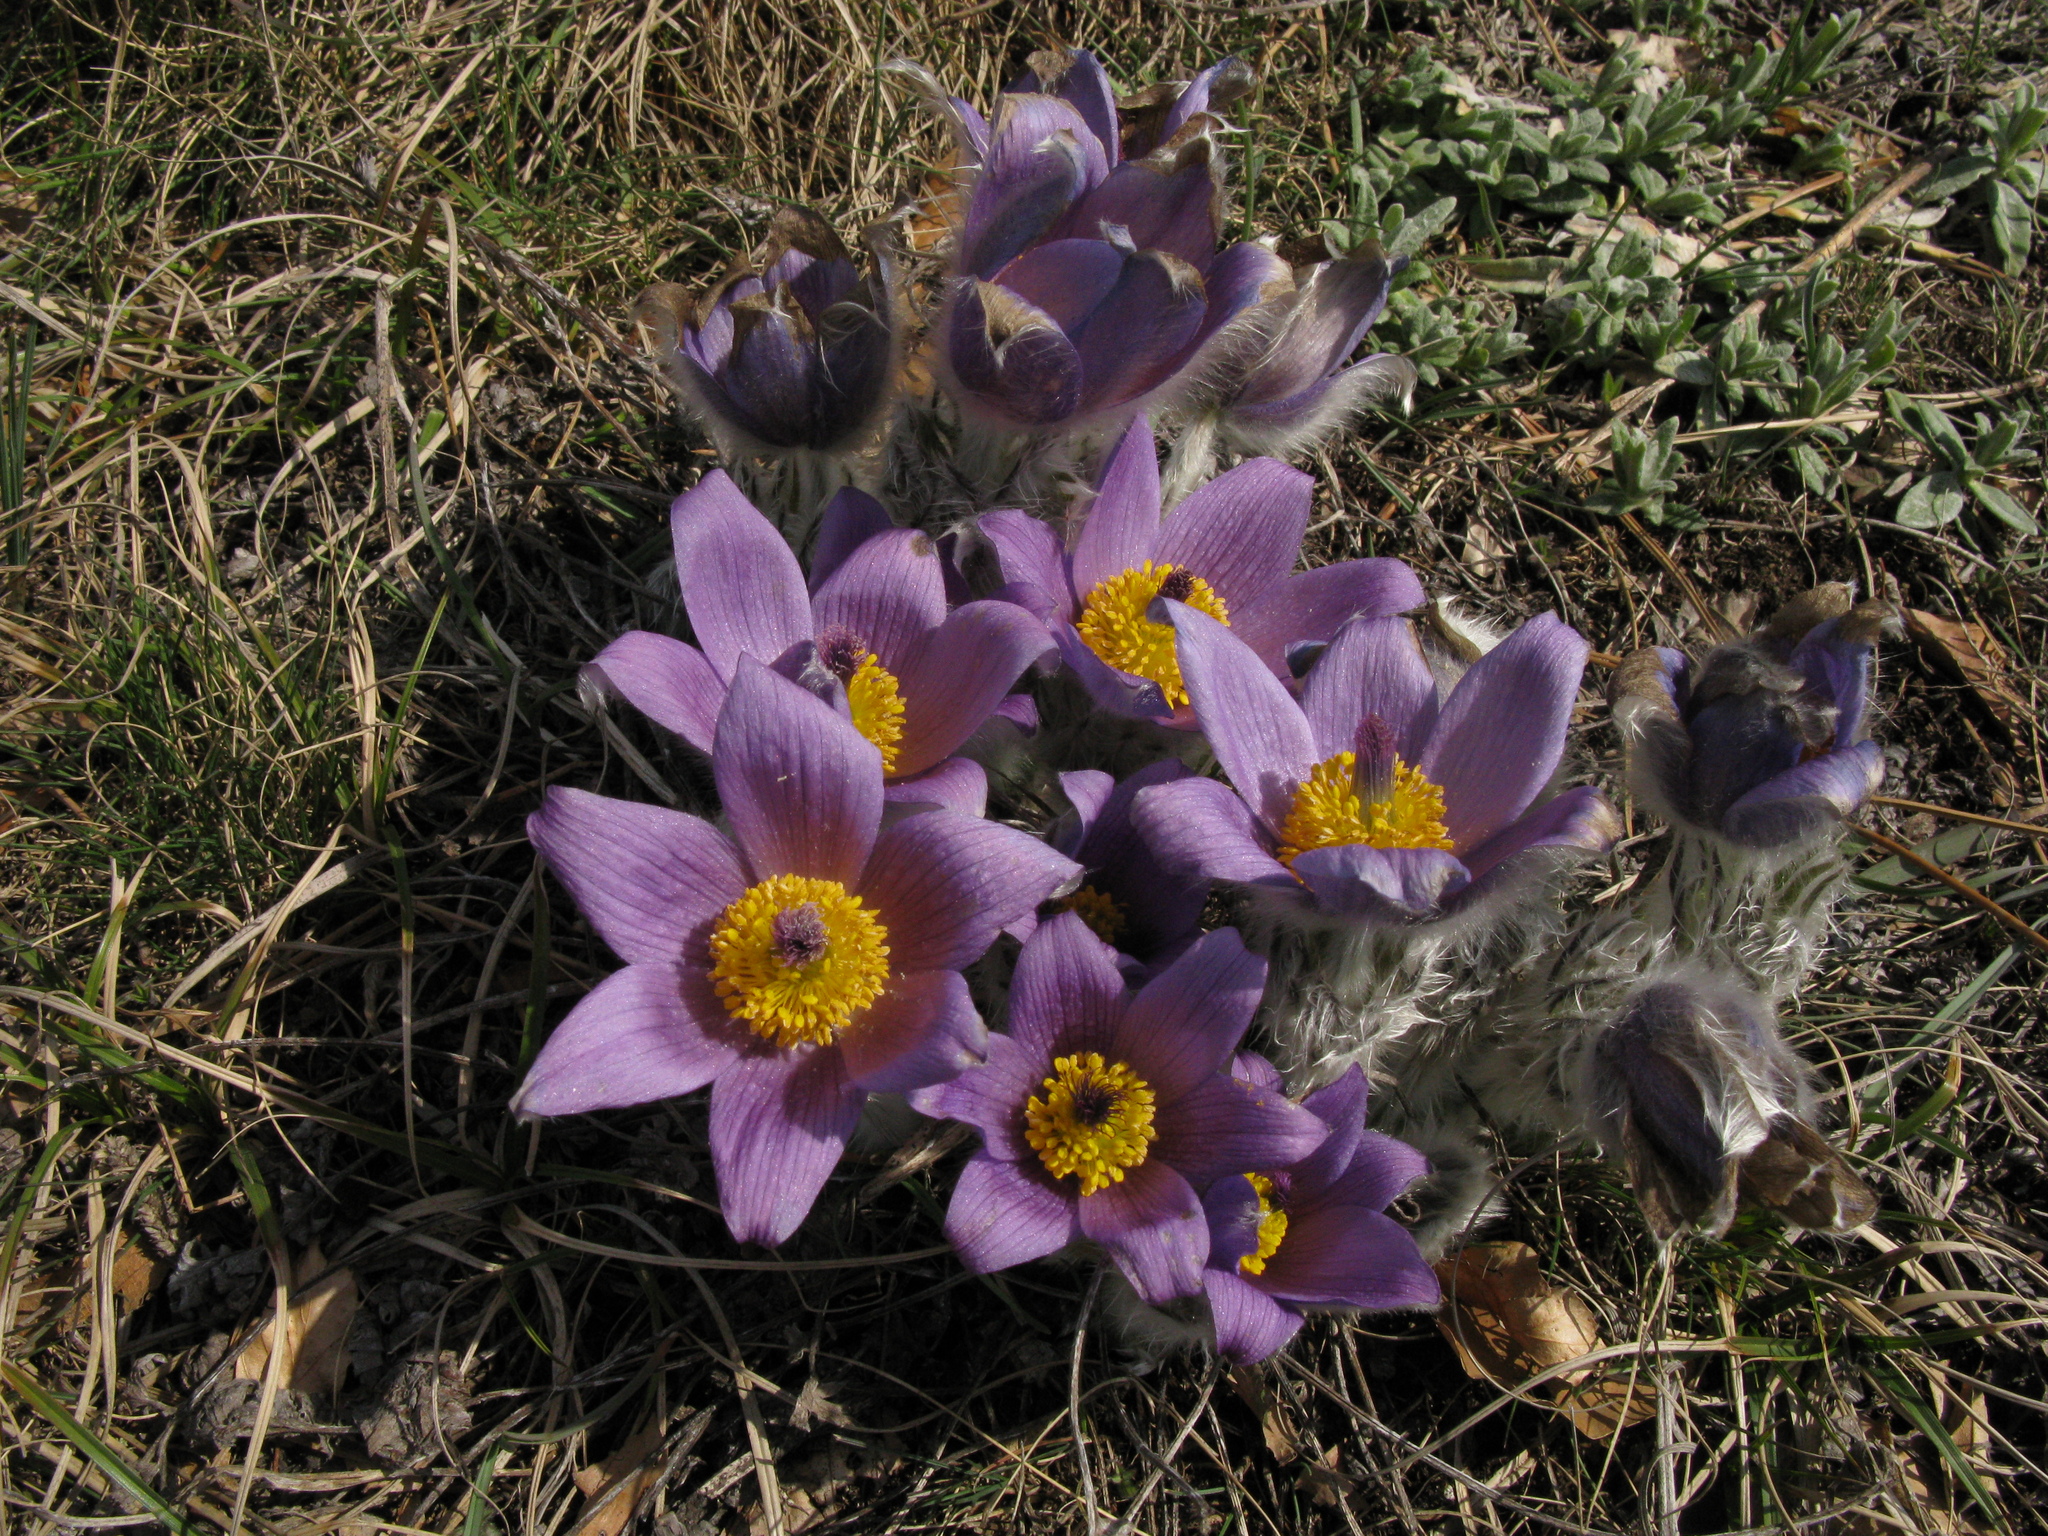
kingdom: Plantae
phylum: Tracheophyta
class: Magnoliopsida
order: Ranunculales
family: Ranunculaceae
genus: Pulsatilla
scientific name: Pulsatilla halleri
